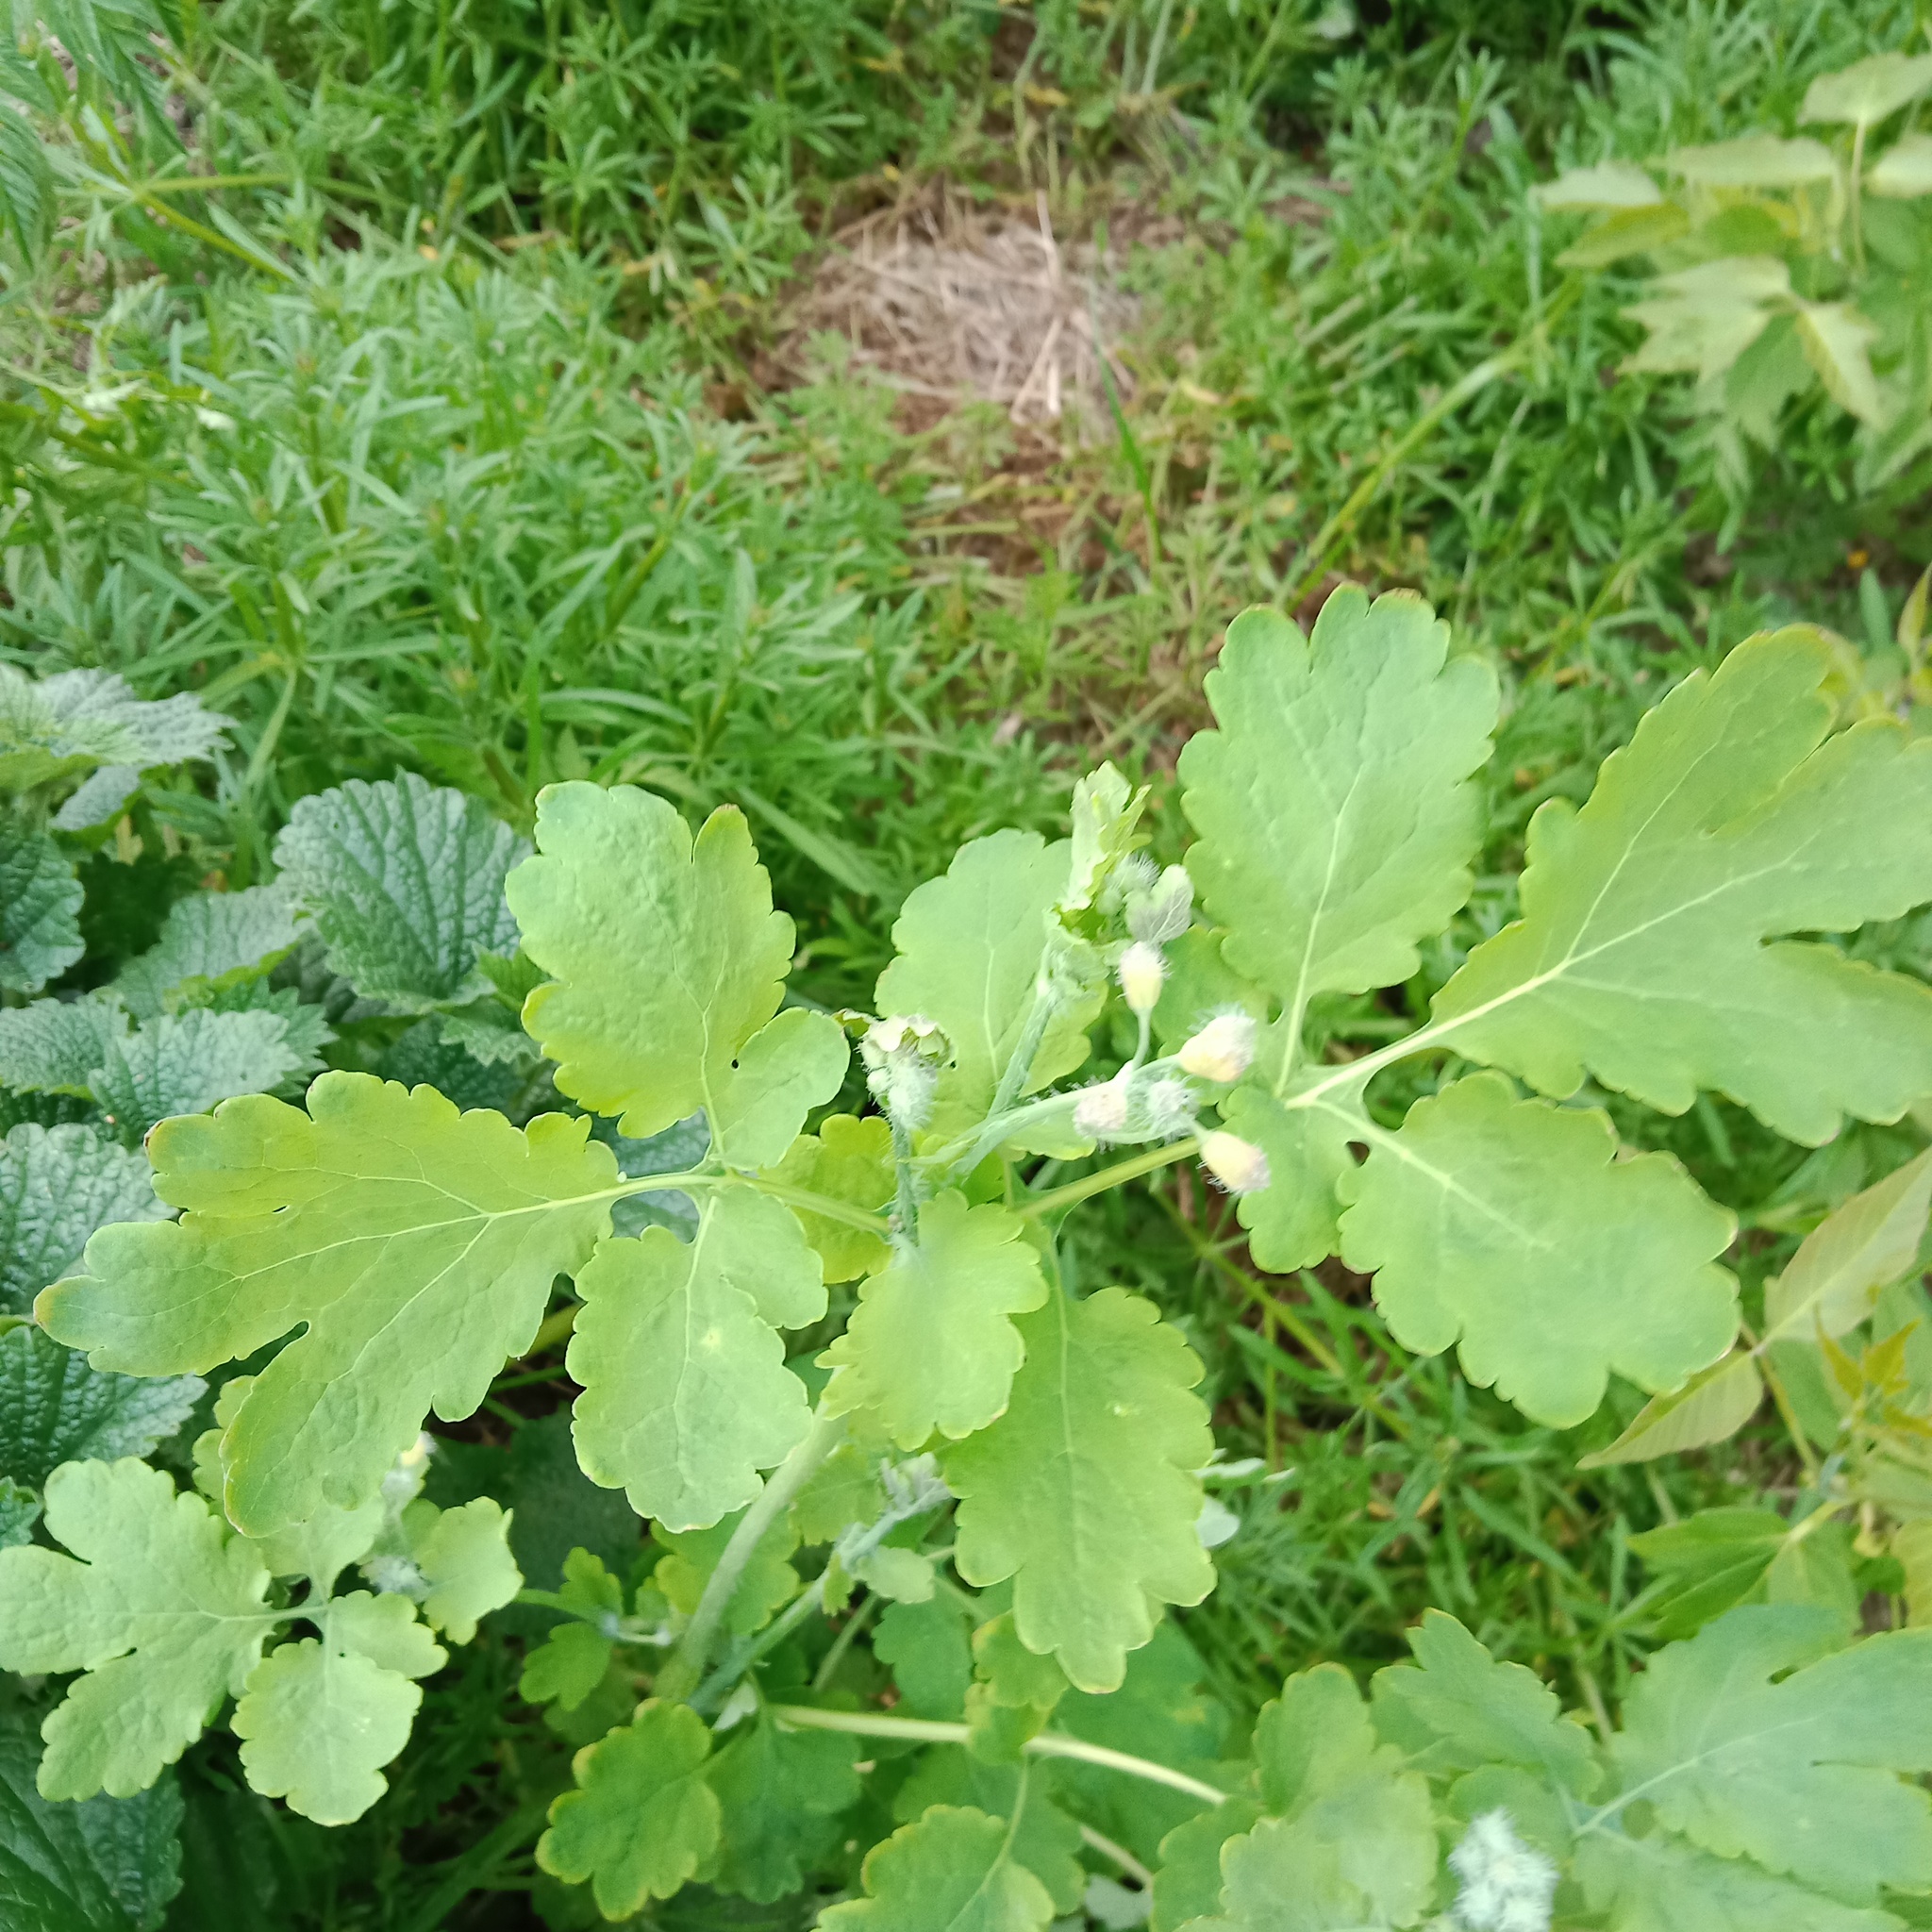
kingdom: Plantae
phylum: Tracheophyta
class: Magnoliopsida
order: Ranunculales
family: Papaveraceae
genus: Chelidonium
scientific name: Chelidonium majus
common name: Greater celandine
